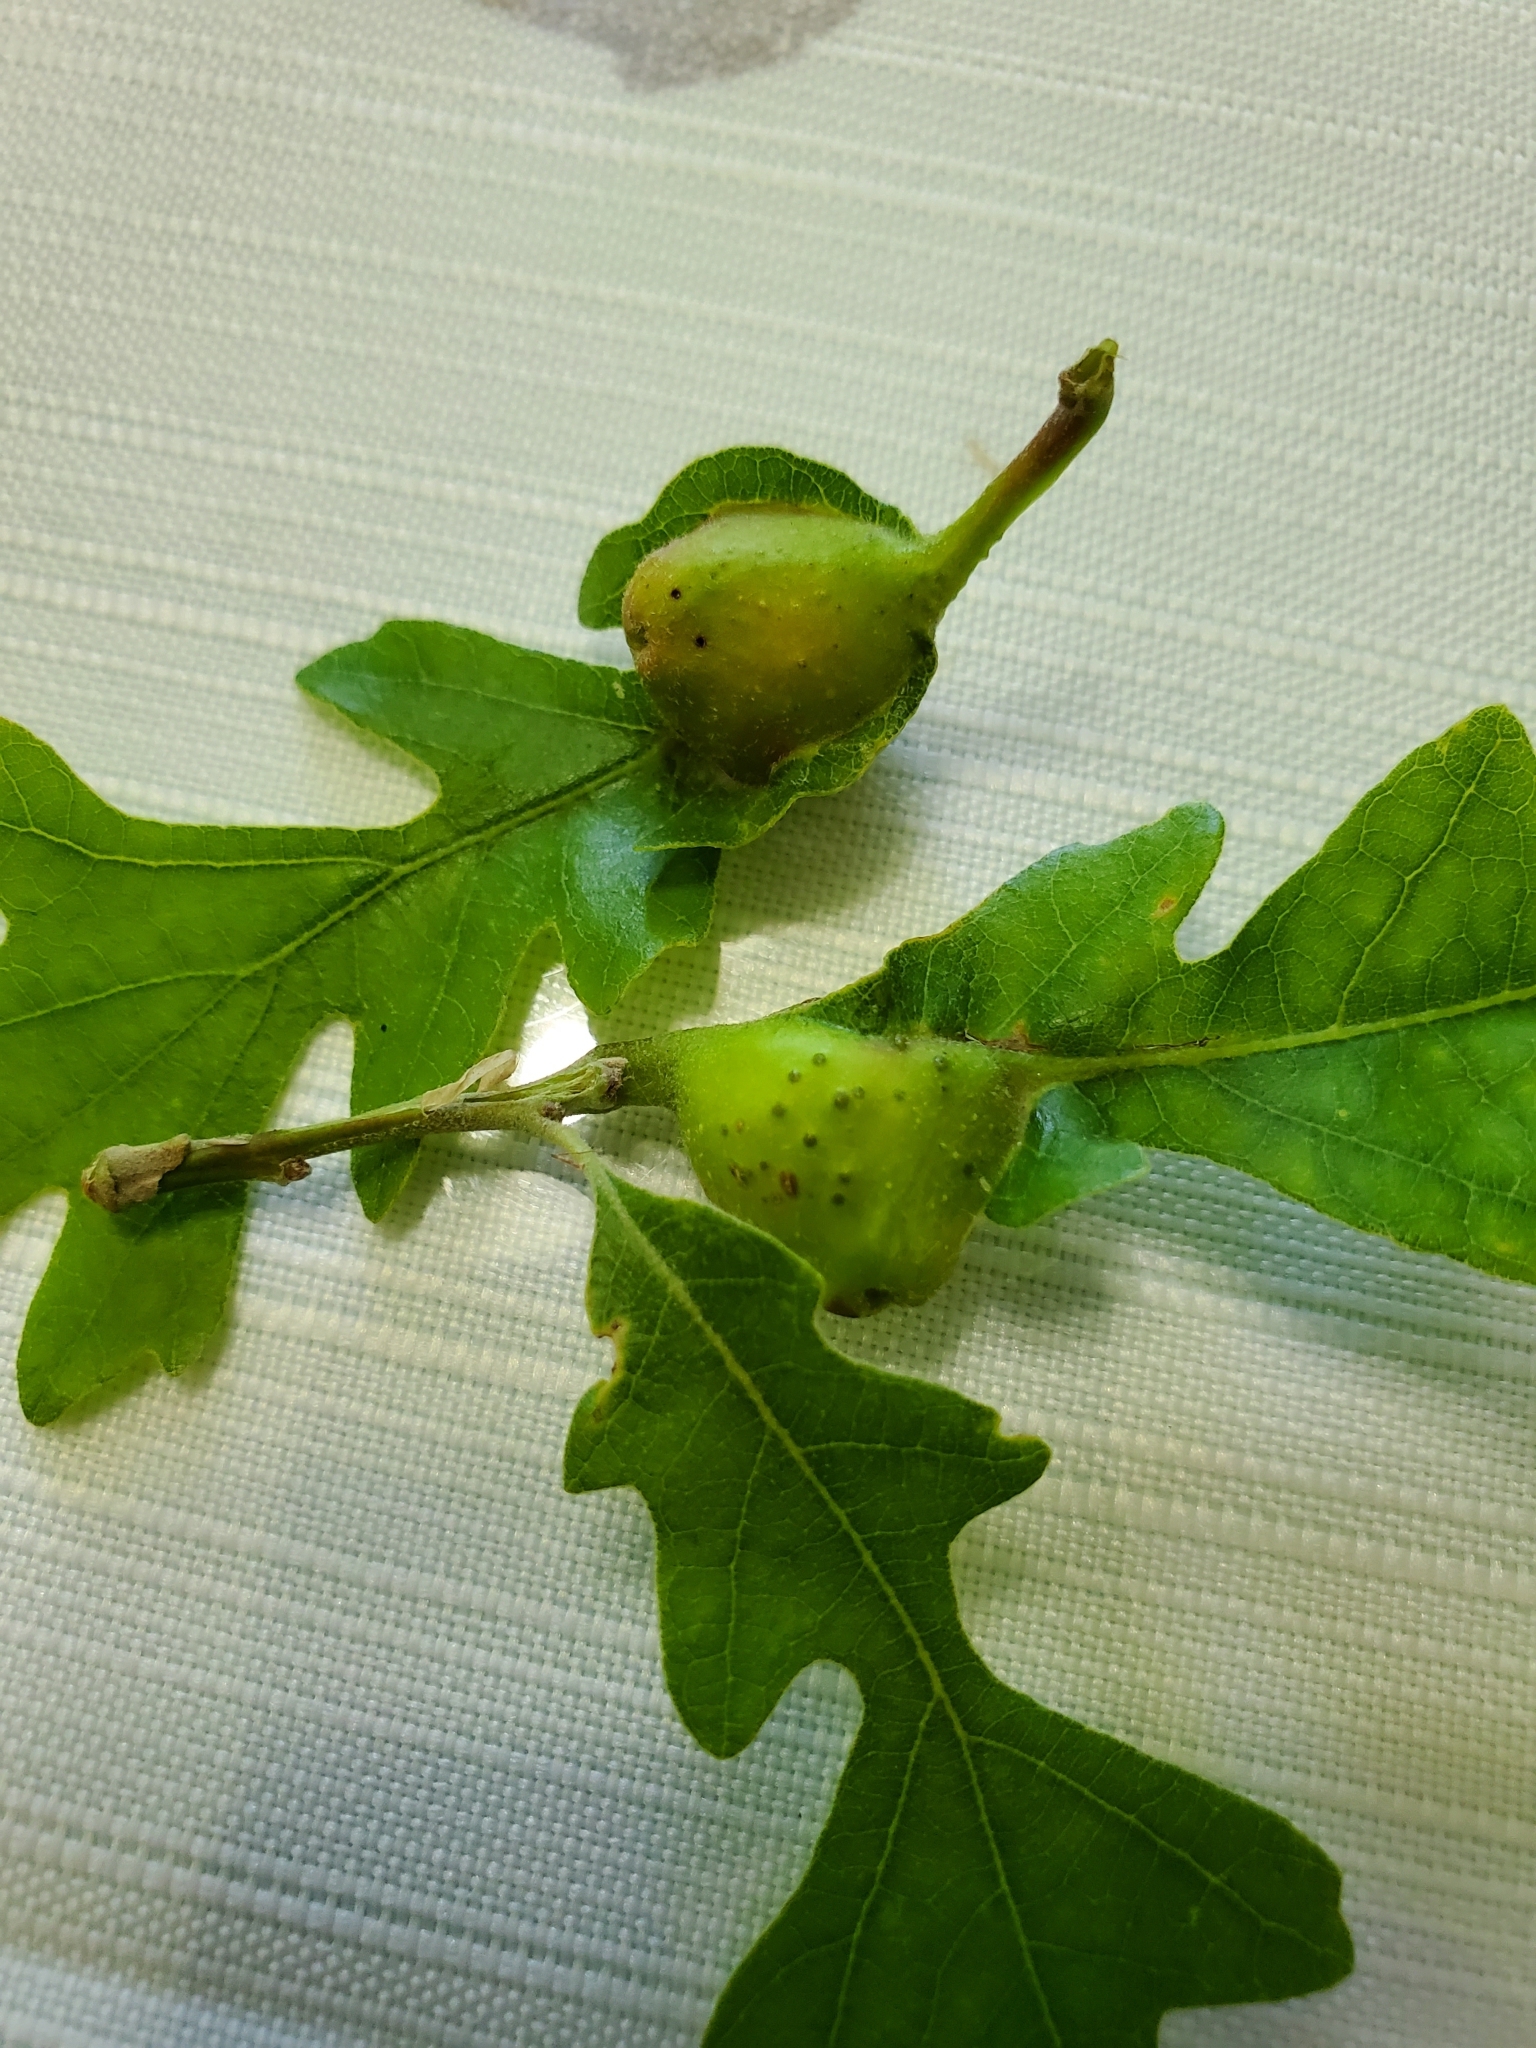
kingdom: Animalia
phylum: Arthropoda
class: Insecta
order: Hymenoptera
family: Cynipidae
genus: Andricus
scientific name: Andricus
